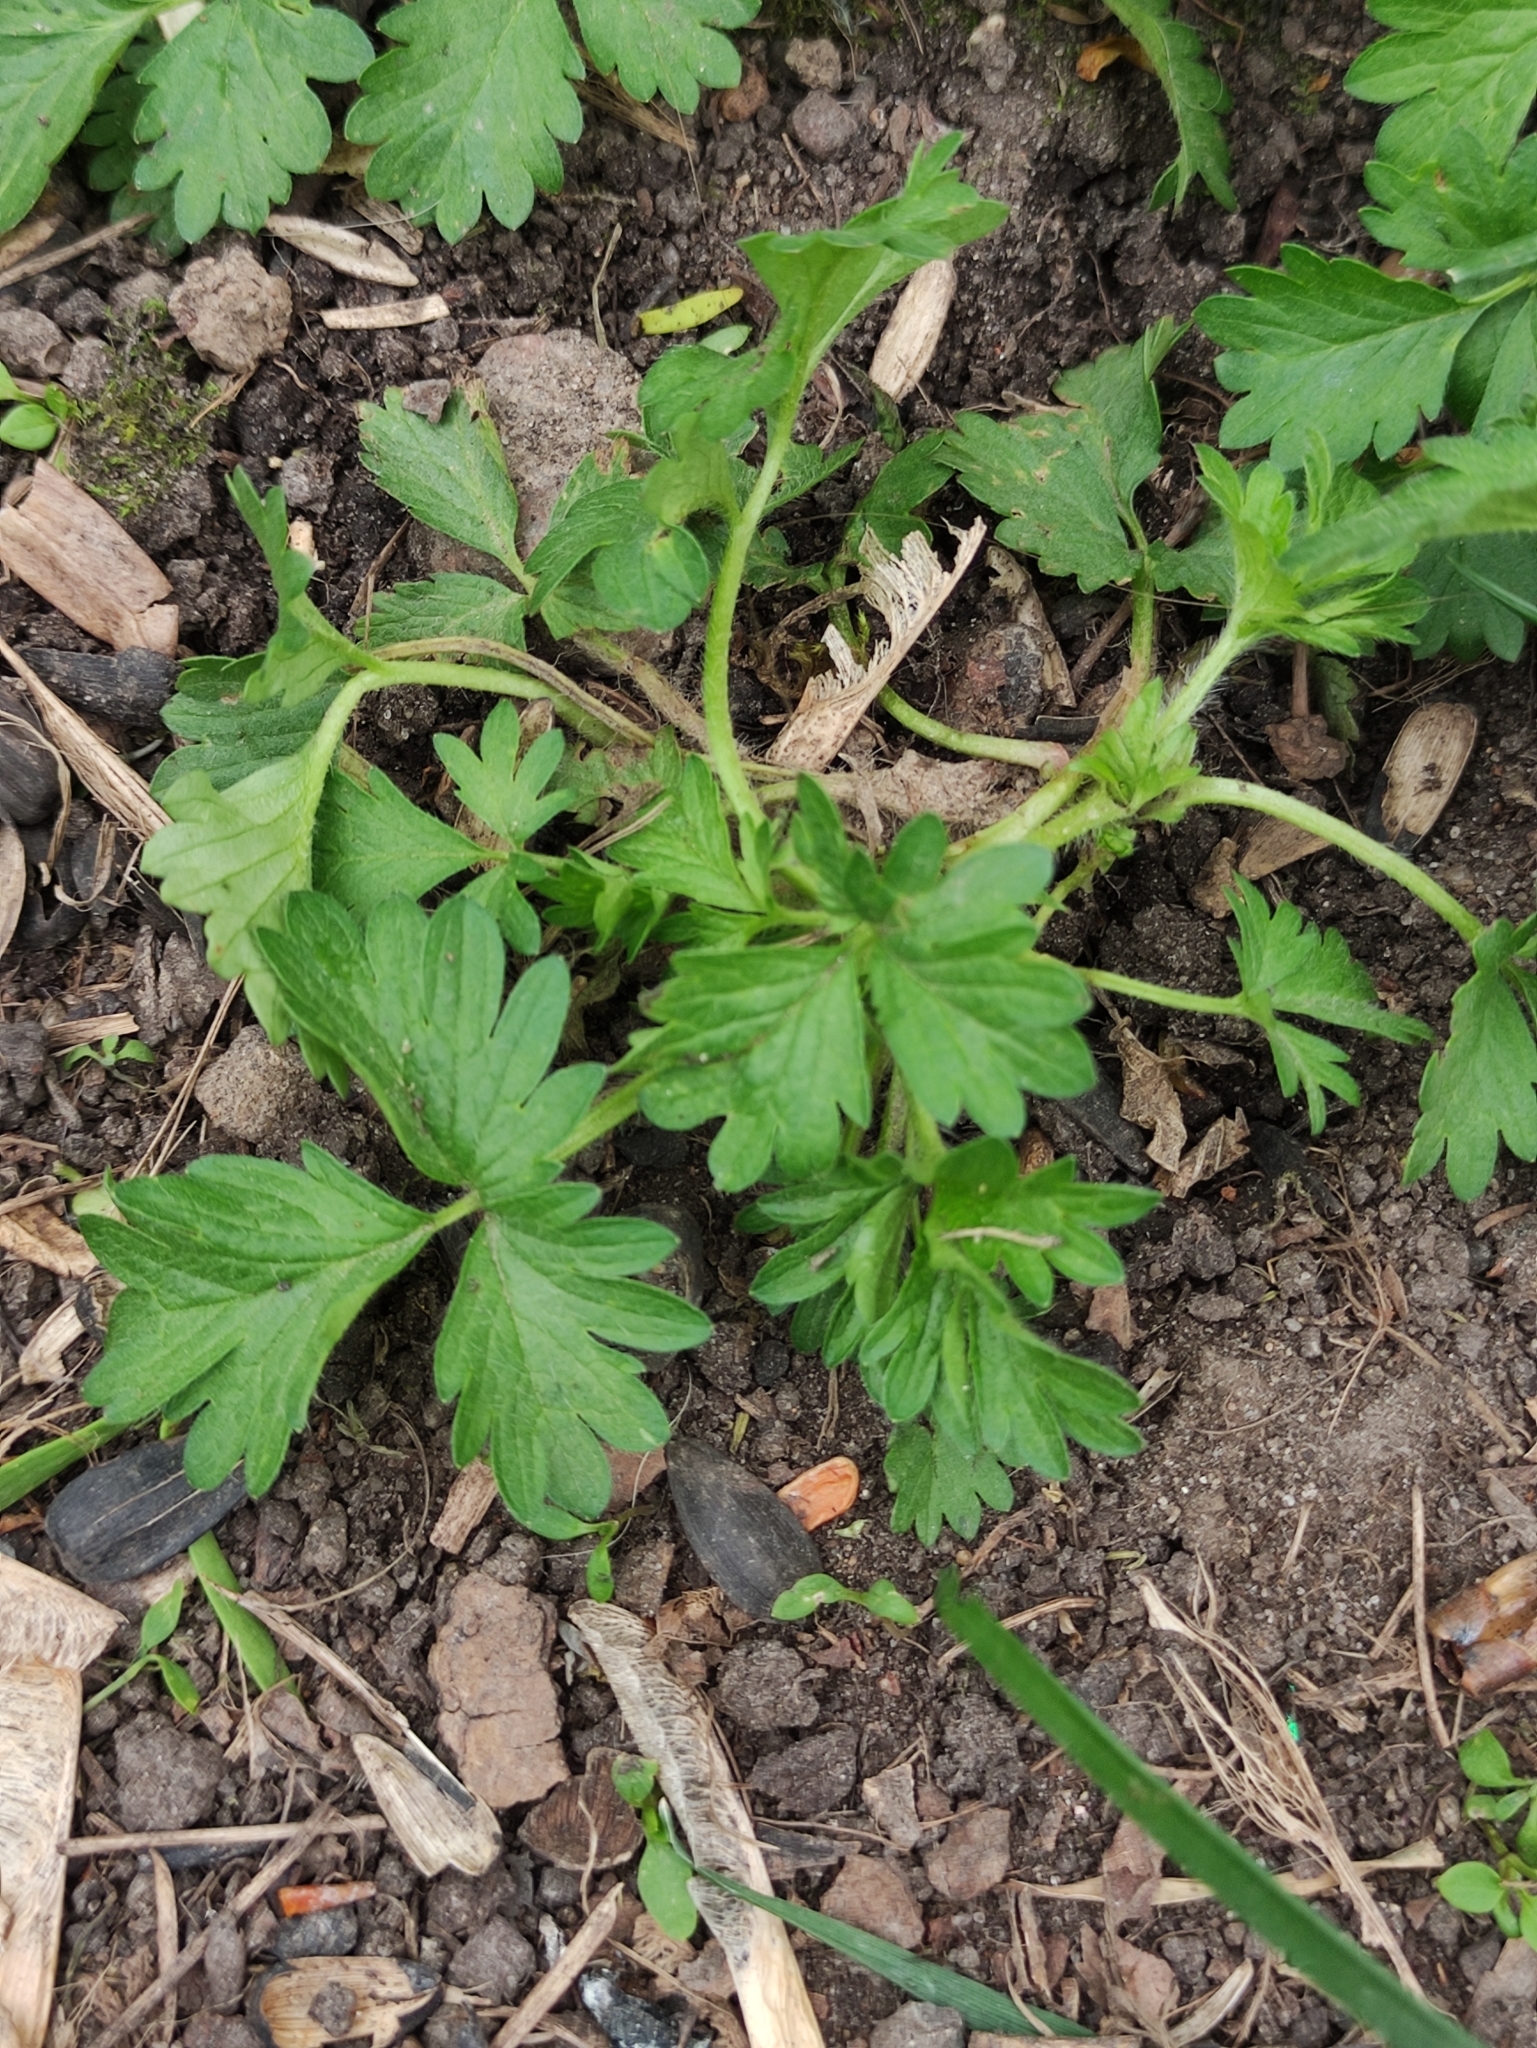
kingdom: Plantae
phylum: Tracheophyta
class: Magnoliopsida
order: Rosales
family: Rosaceae
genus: Potentilla
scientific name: Potentilla norvegica
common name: Ternate-leaved cinquefoil
